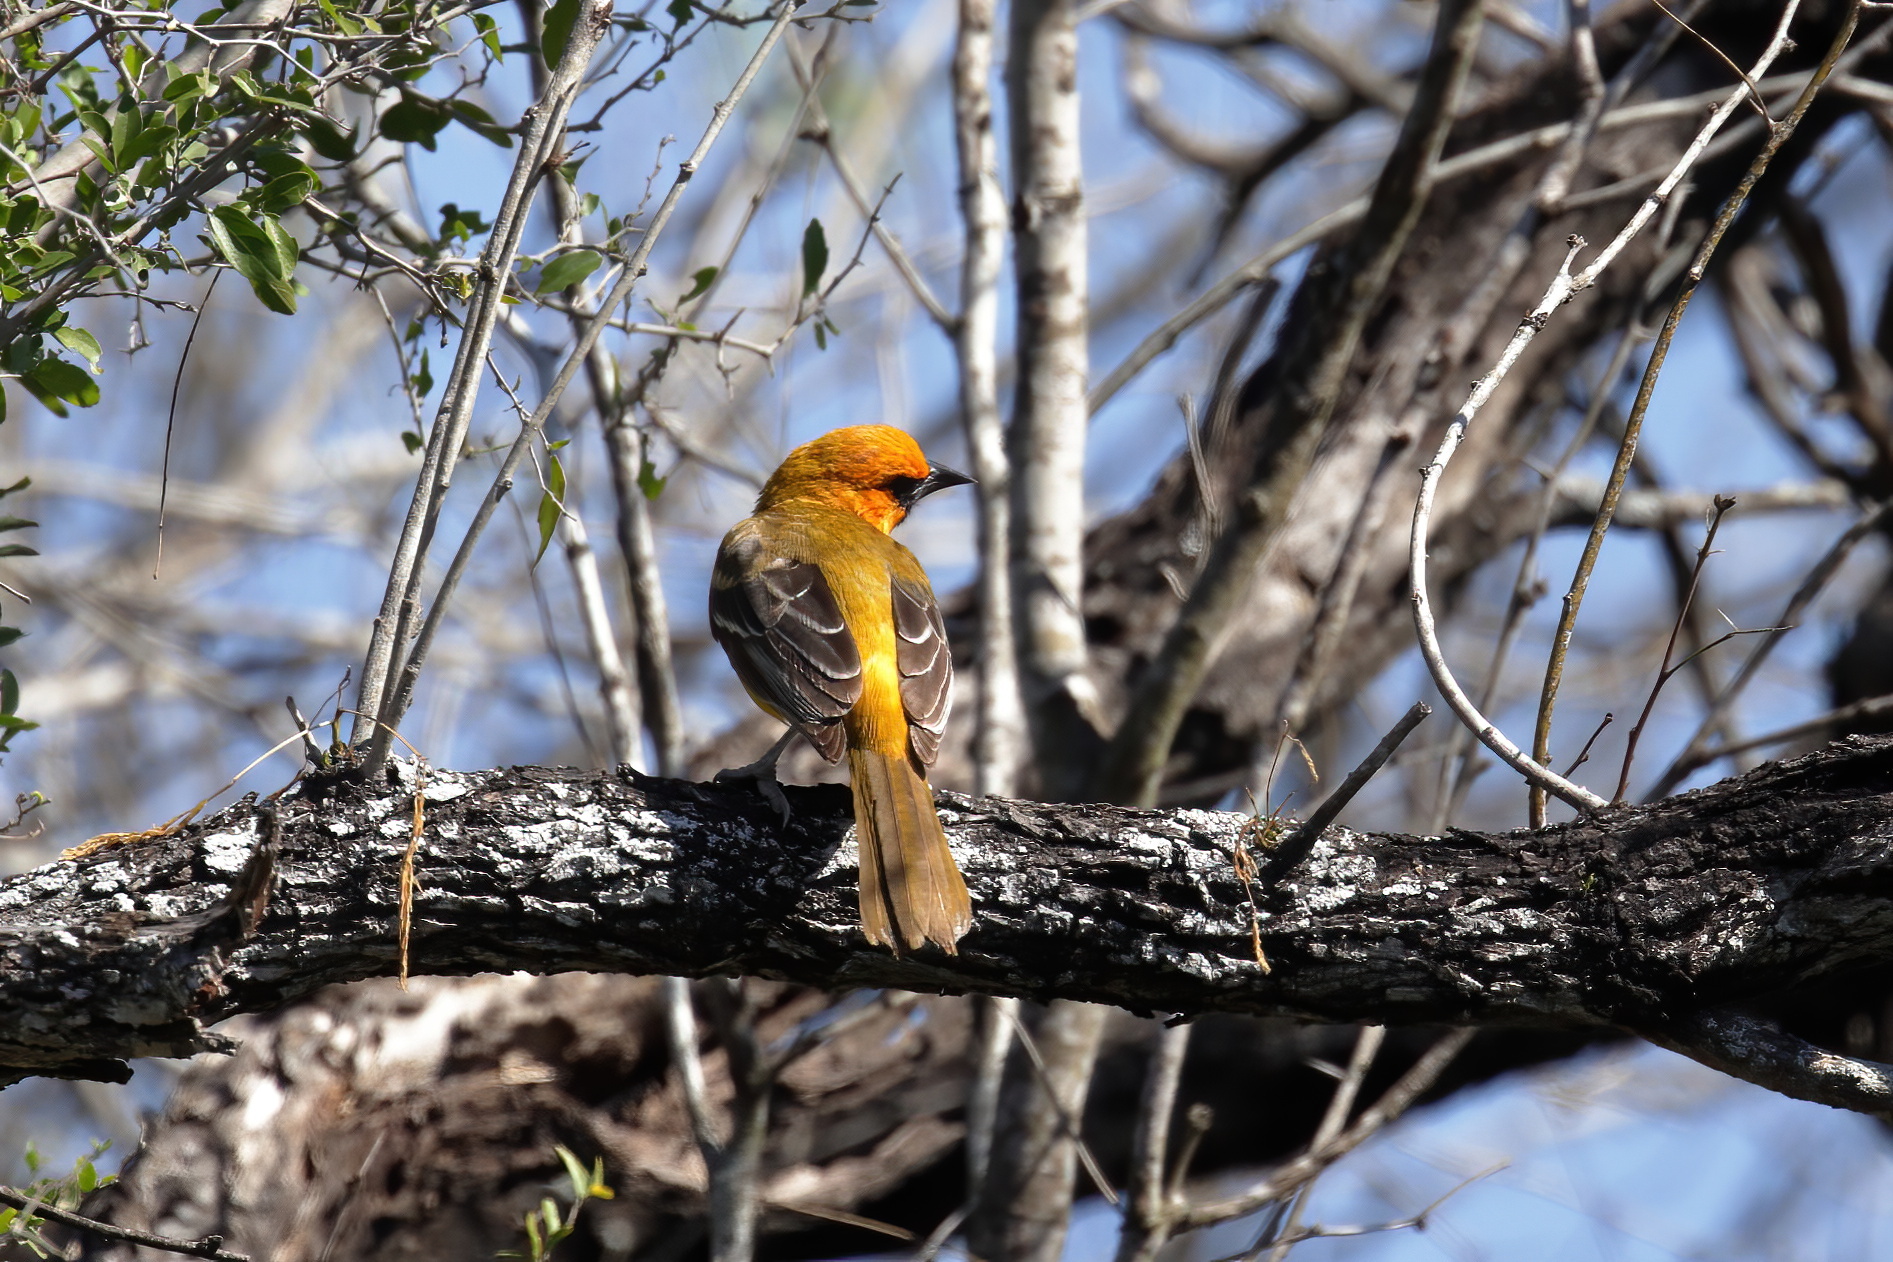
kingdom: Animalia
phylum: Chordata
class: Aves
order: Passeriformes
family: Icteridae
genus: Icterus
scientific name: Icterus gularis
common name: Altamira oriole
